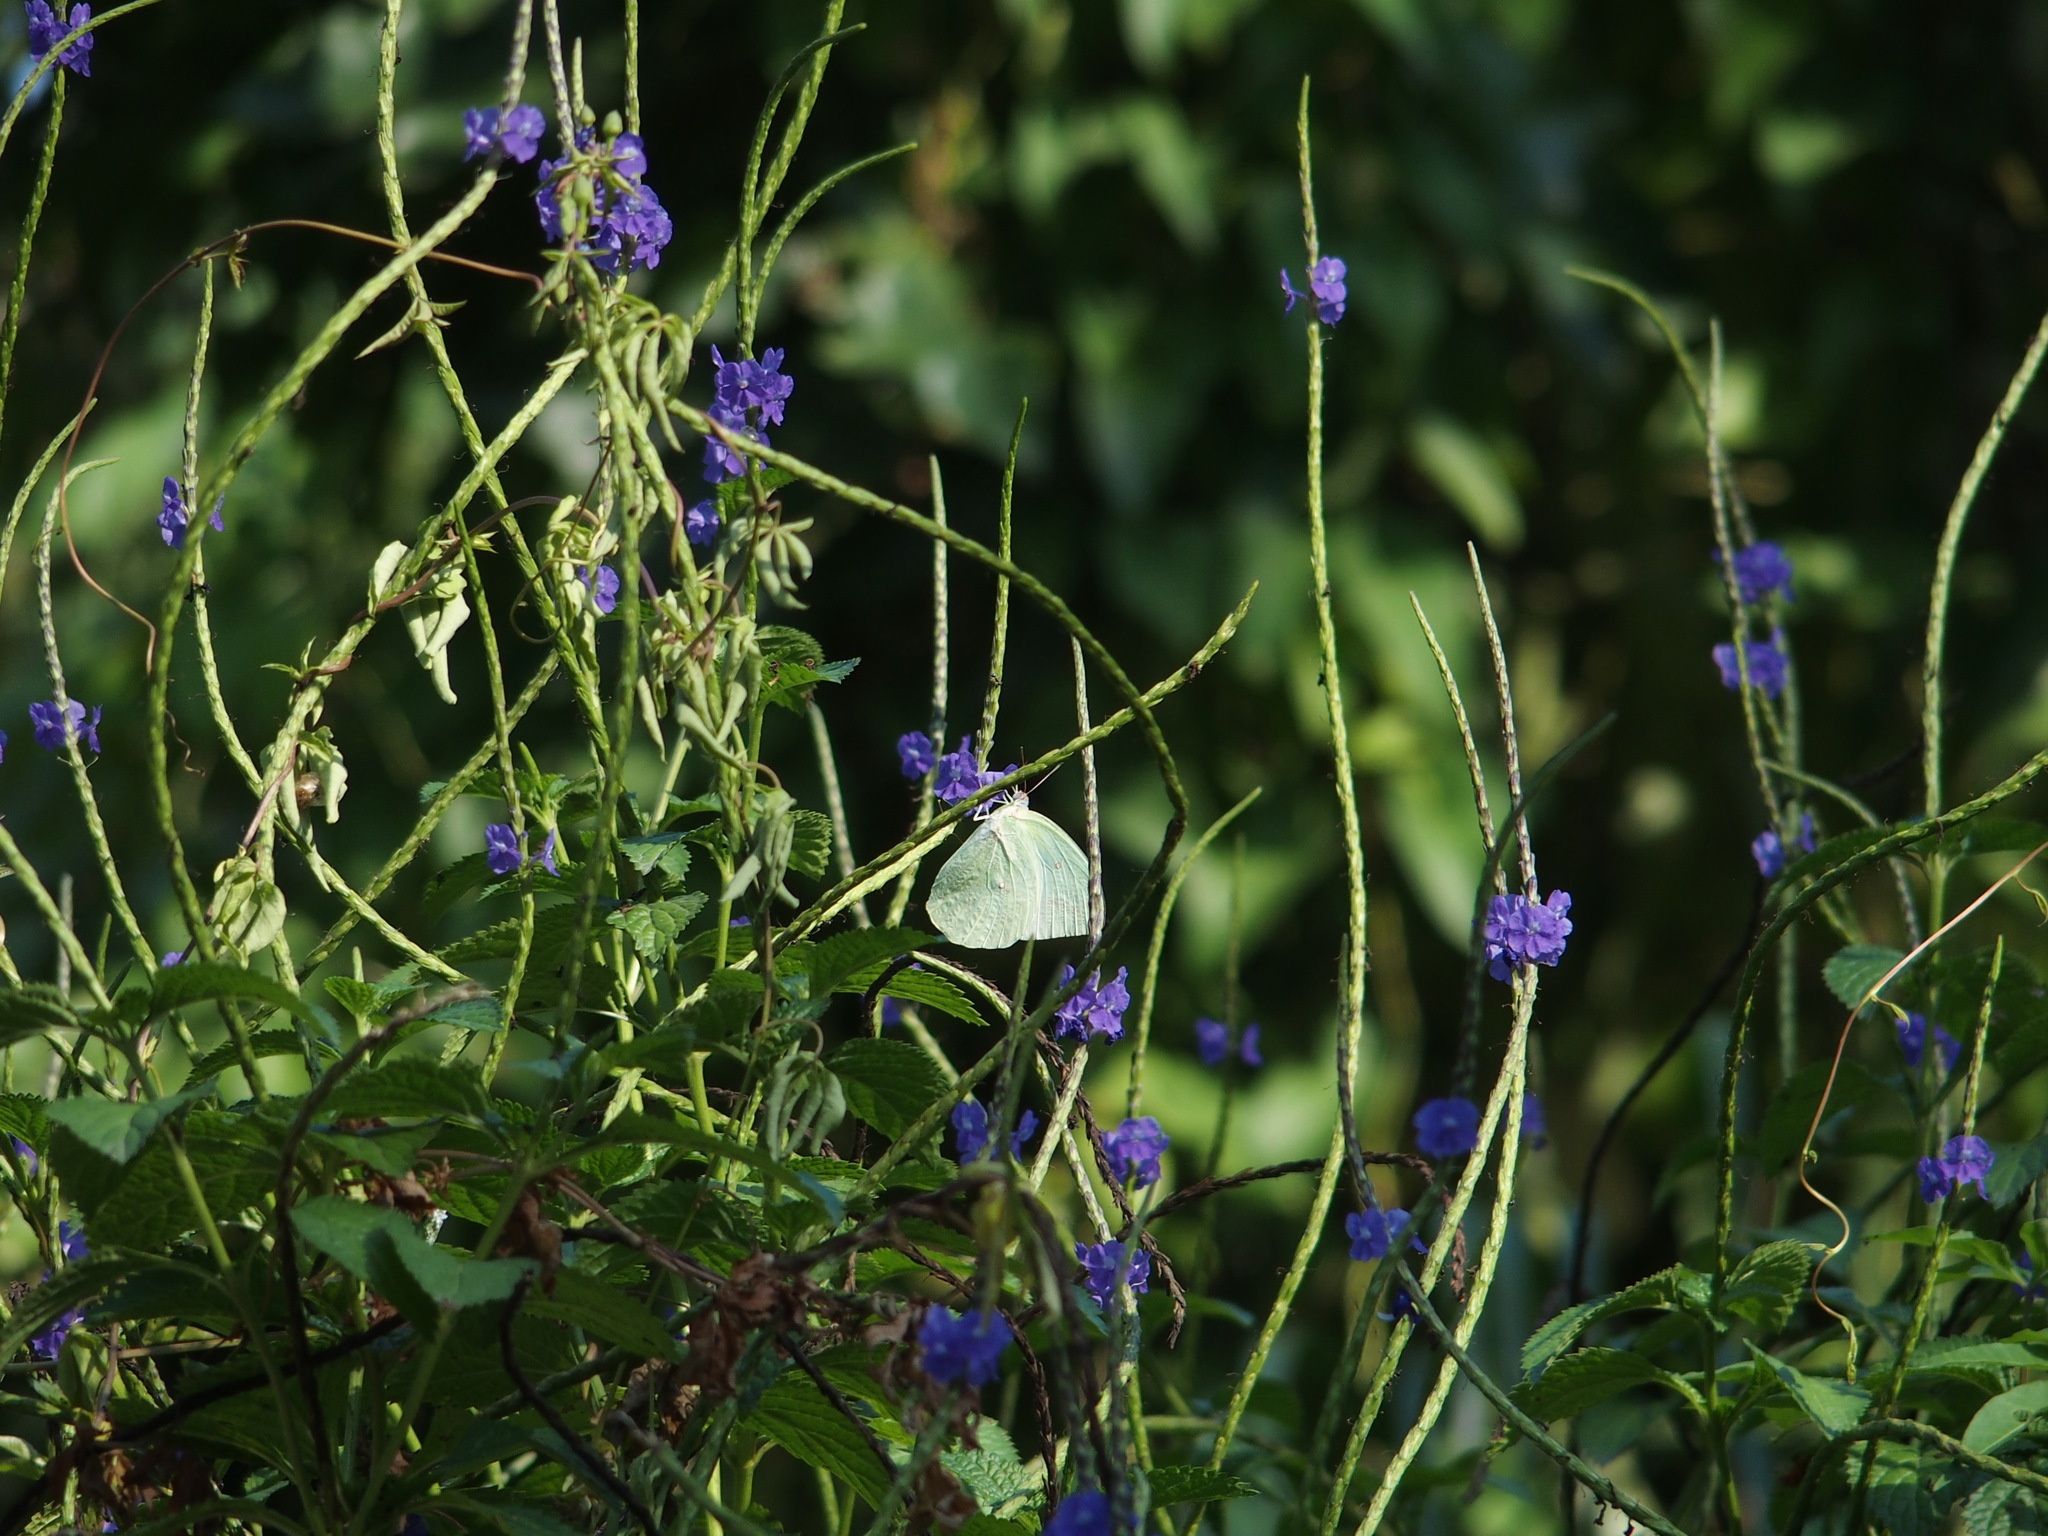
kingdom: Animalia
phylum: Arthropoda
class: Insecta
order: Lepidoptera
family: Pieridae
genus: Catopsilia
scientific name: Catopsilia pomona
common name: Common emigrant
